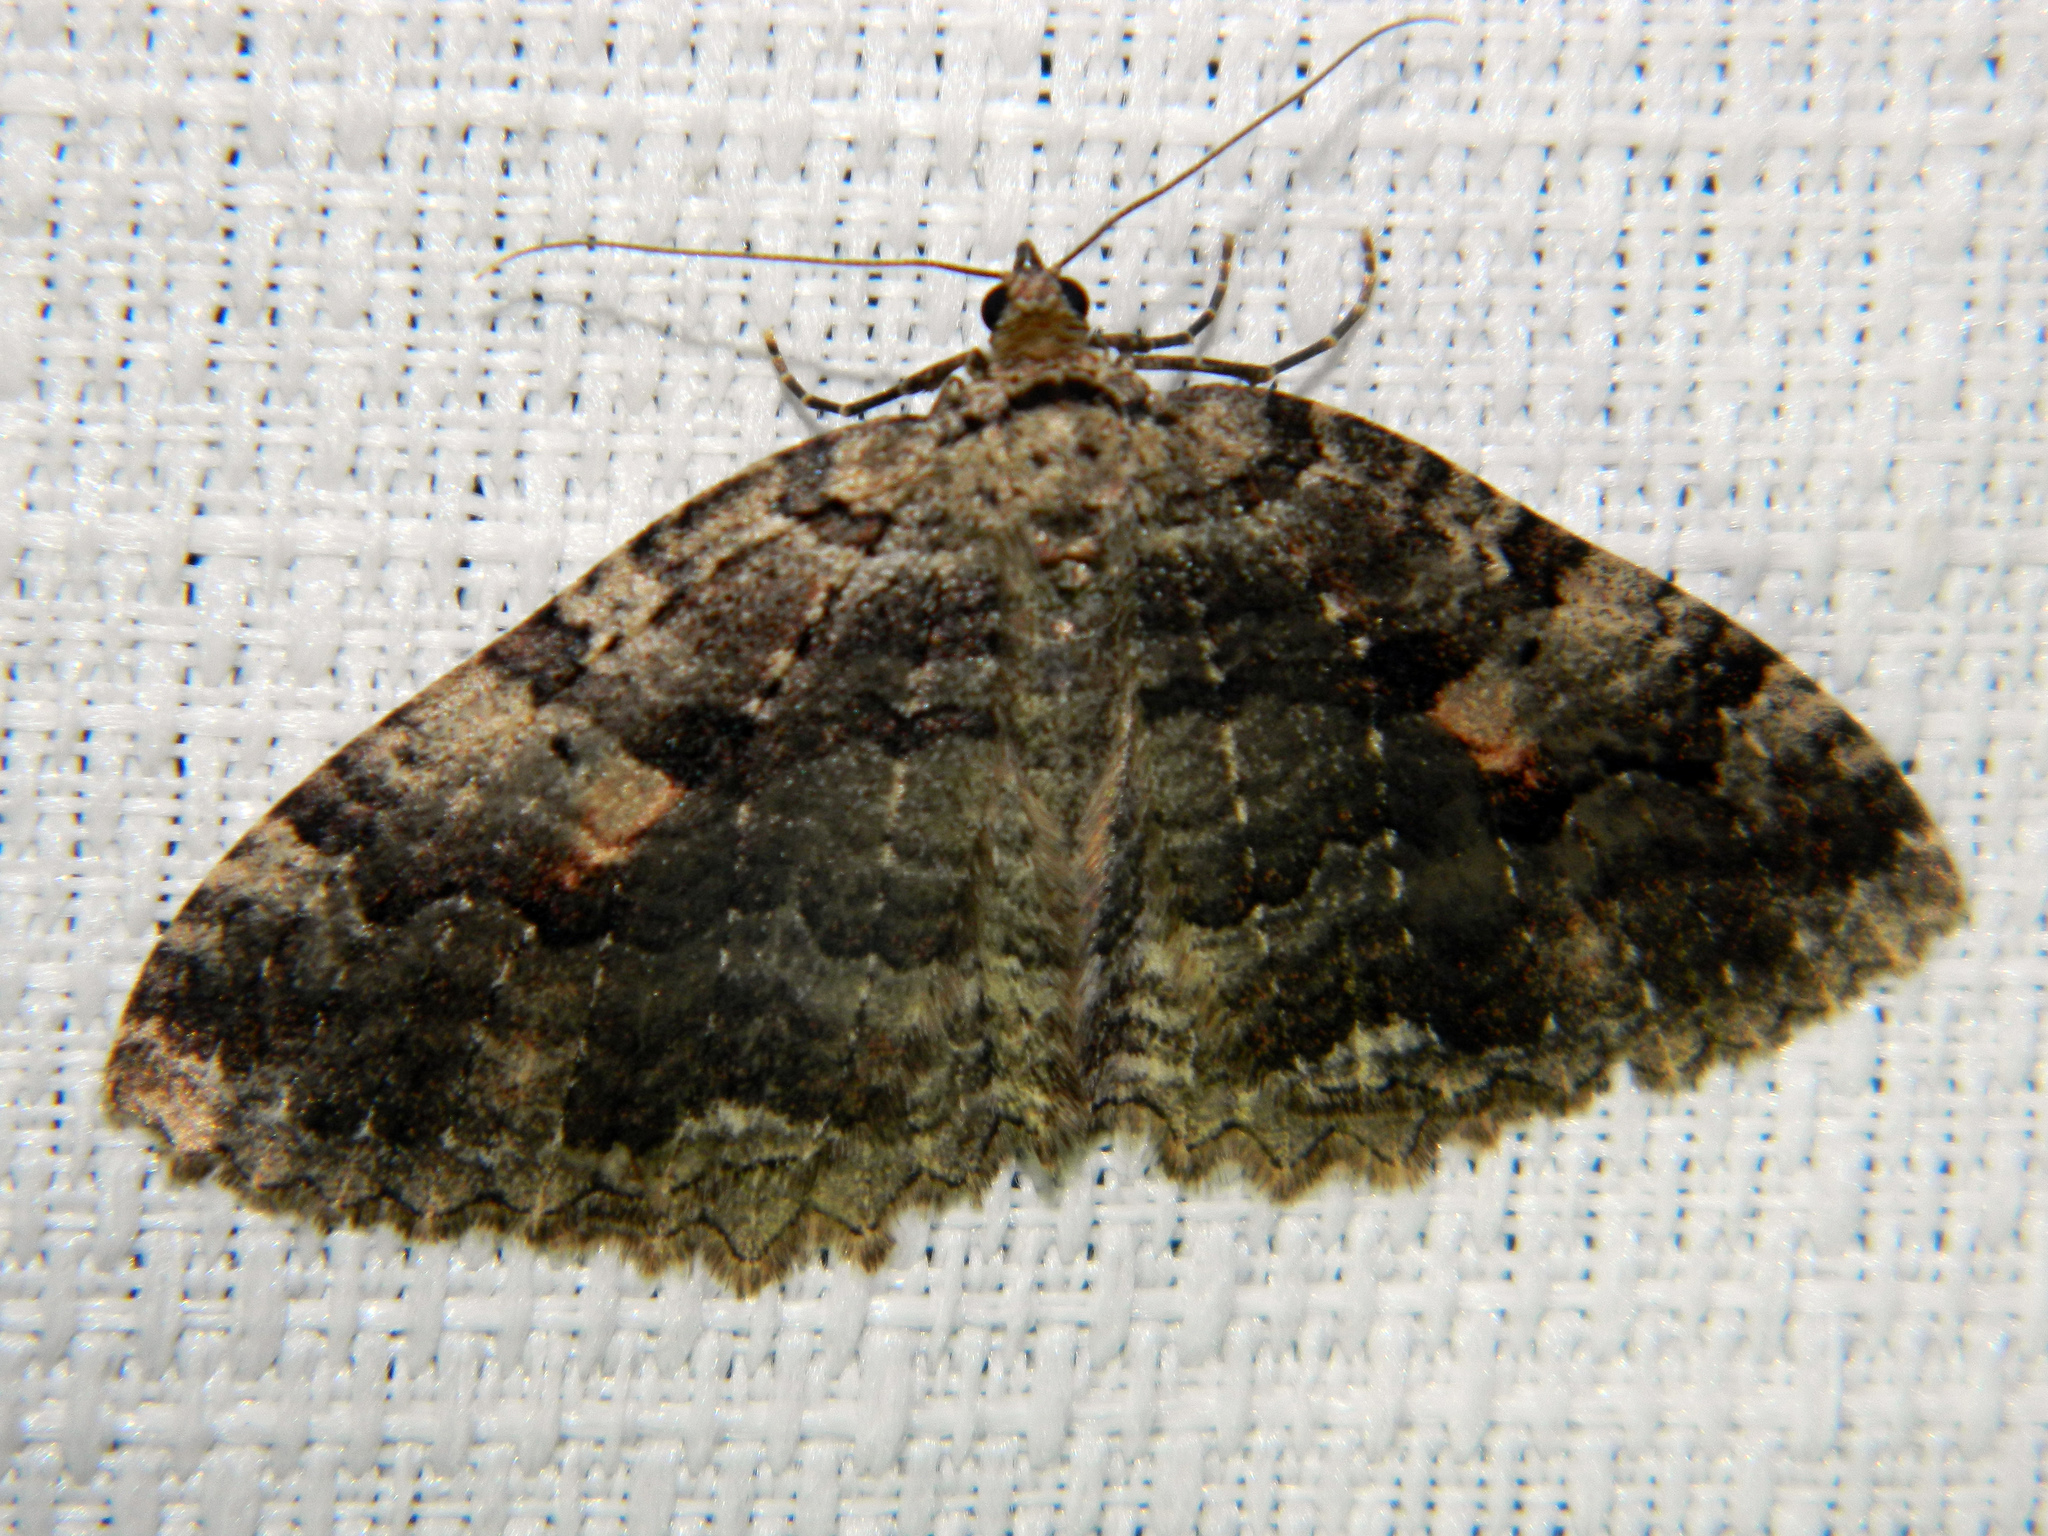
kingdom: Animalia
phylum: Arthropoda
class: Insecta
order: Lepidoptera
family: Geometridae
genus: Triphosa
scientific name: Triphosa haesitata
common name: Tissue moth
